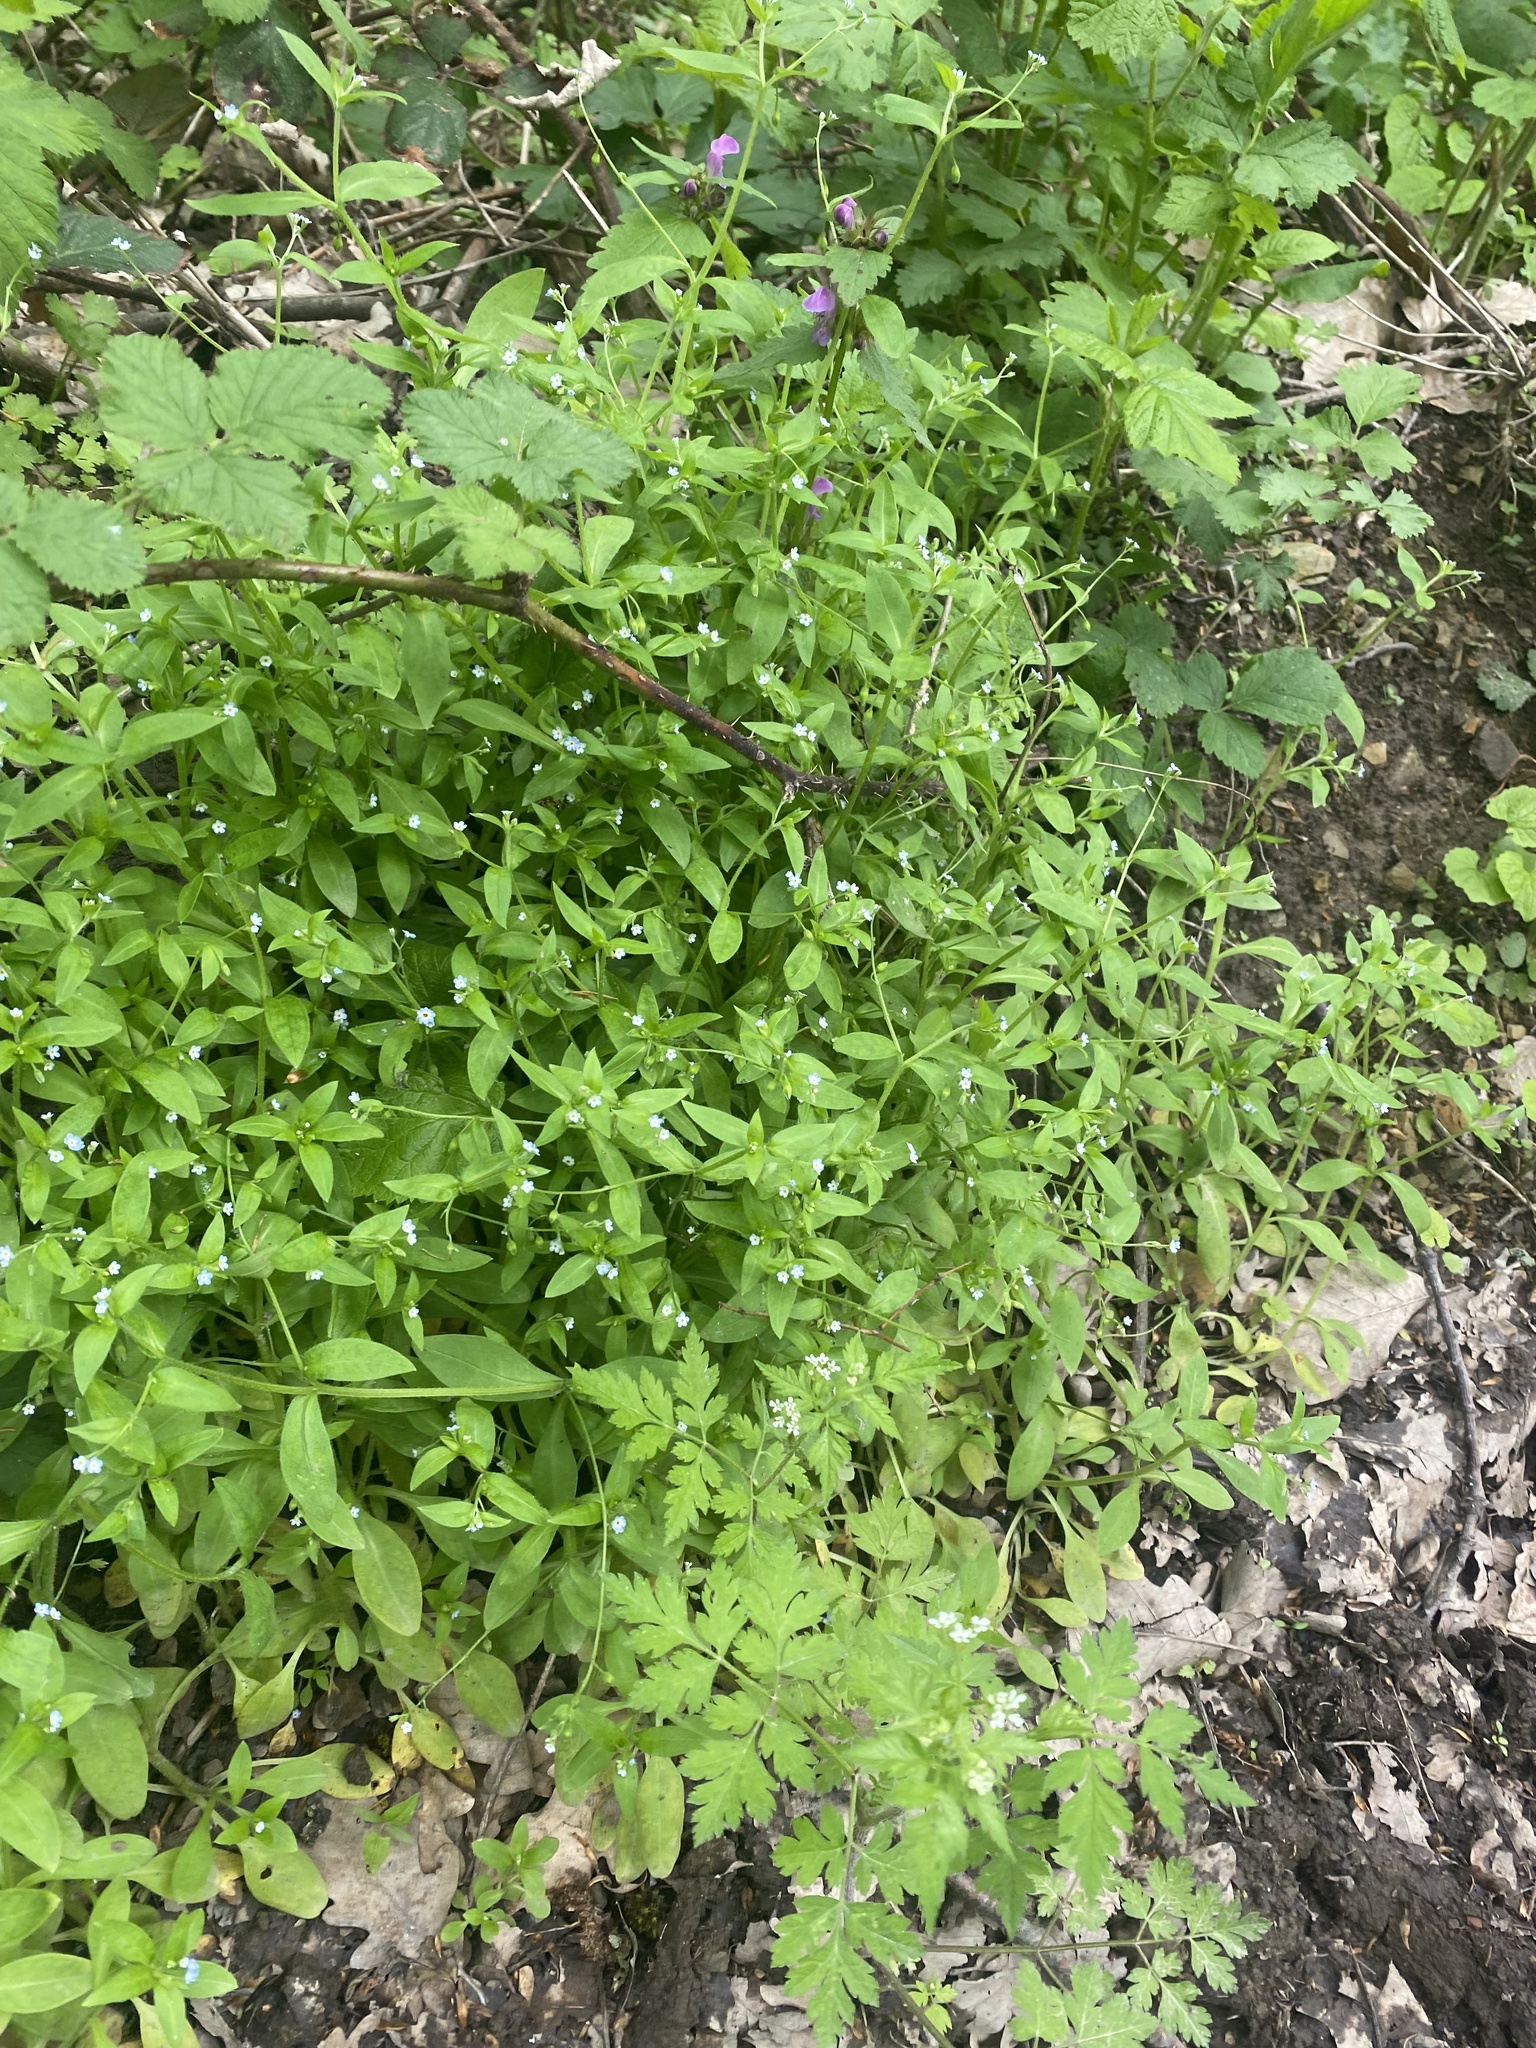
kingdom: Plantae
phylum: Tracheophyta
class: Magnoliopsida
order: Boraginales
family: Boraginaceae
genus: Myosotis
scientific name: Myosotis sparsiflora
